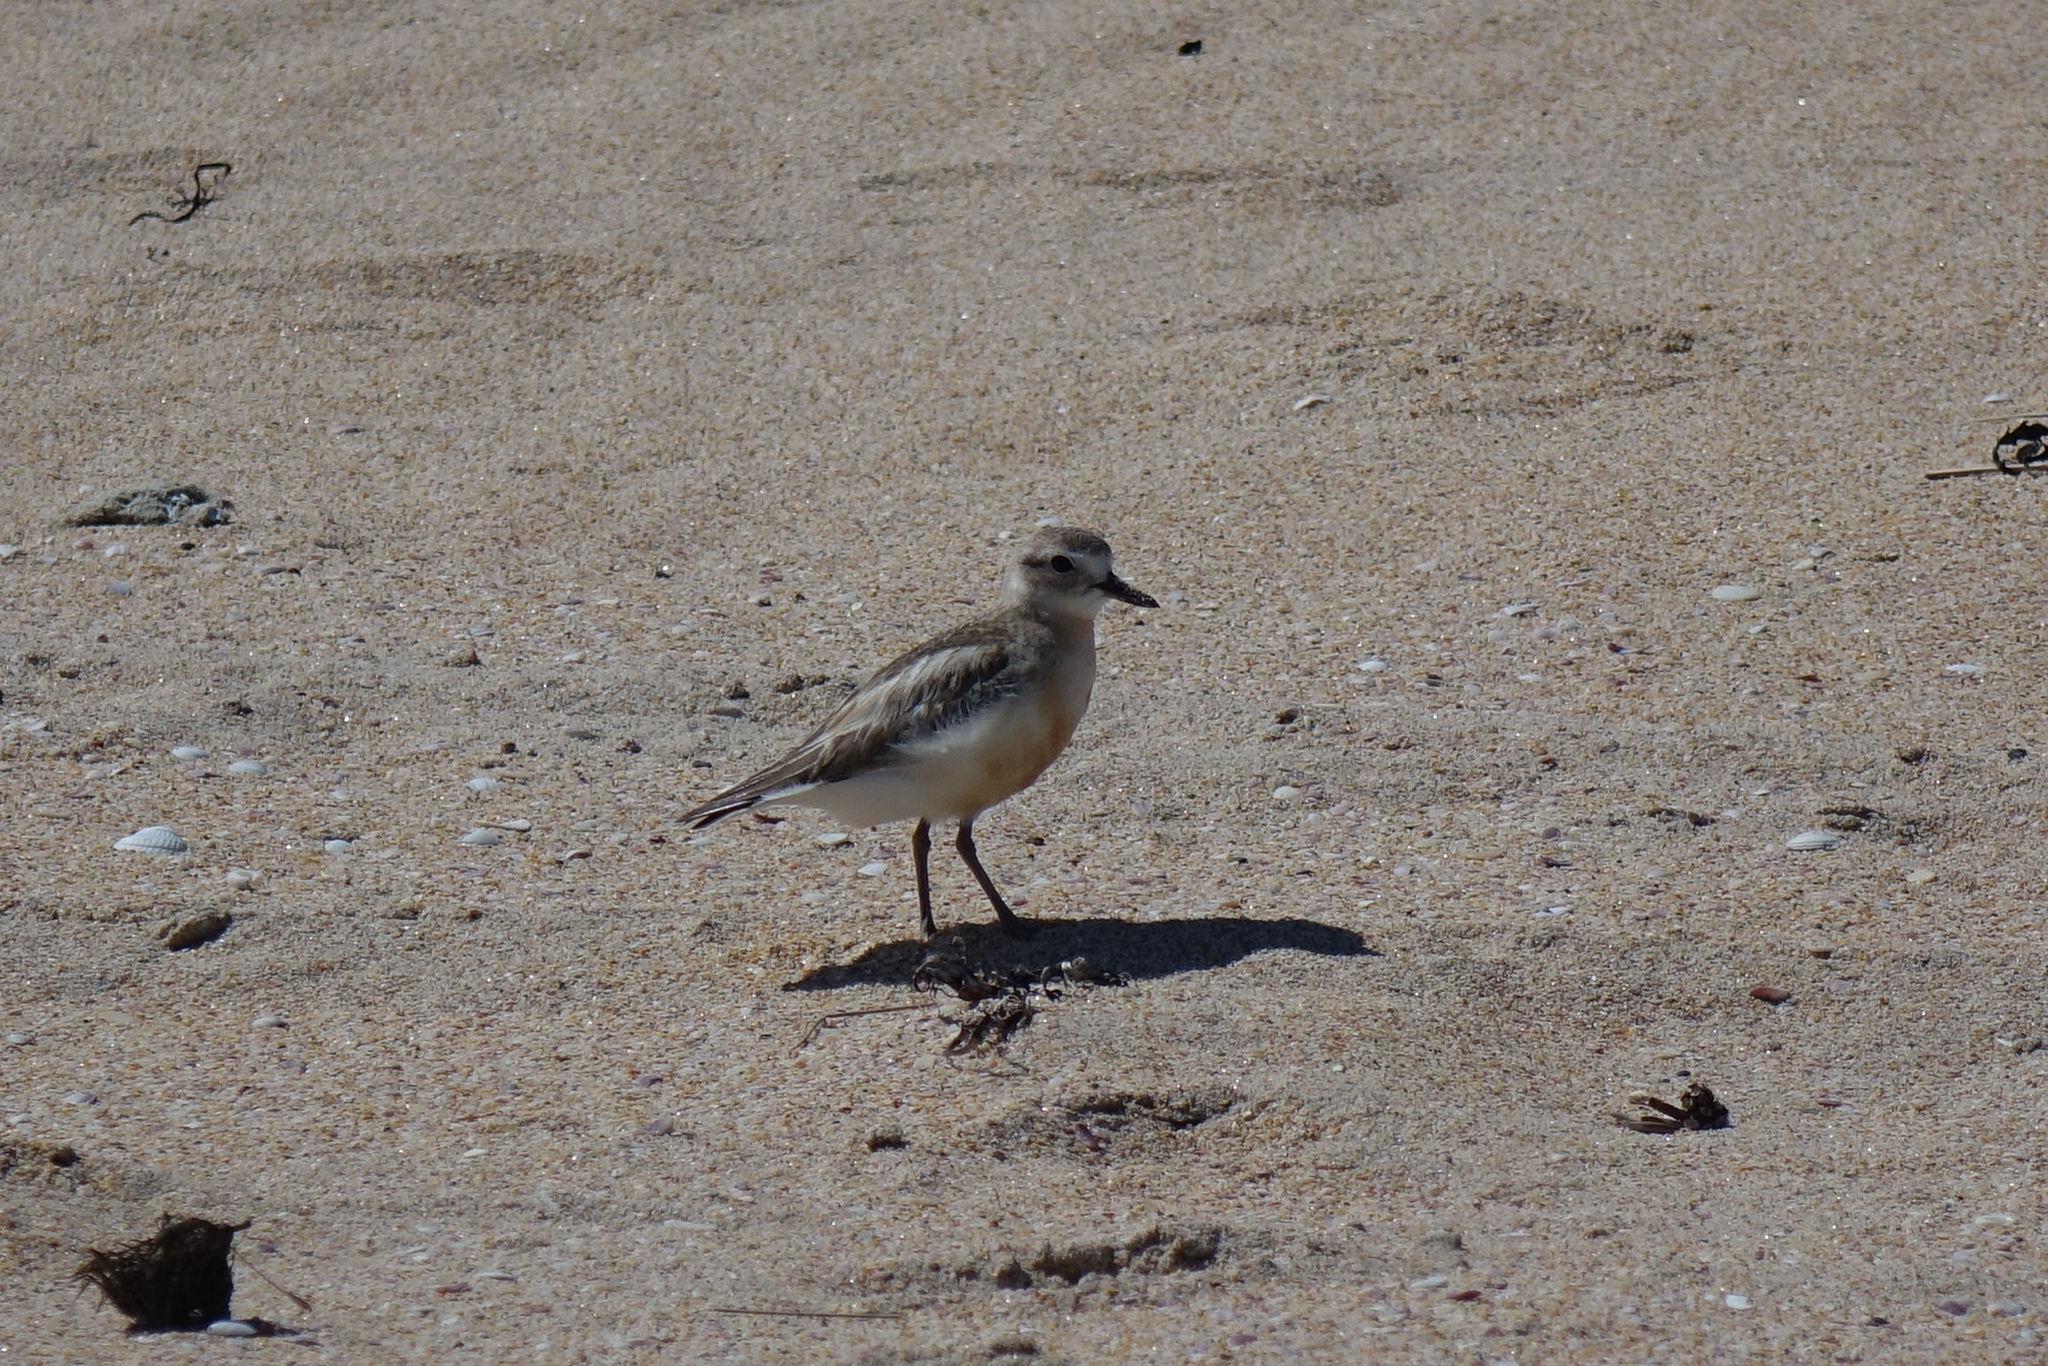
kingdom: Animalia
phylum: Chordata
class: Aves
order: Charadriiformes
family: Charadriidae
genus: Anarhynchus
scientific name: Anarhynchus
